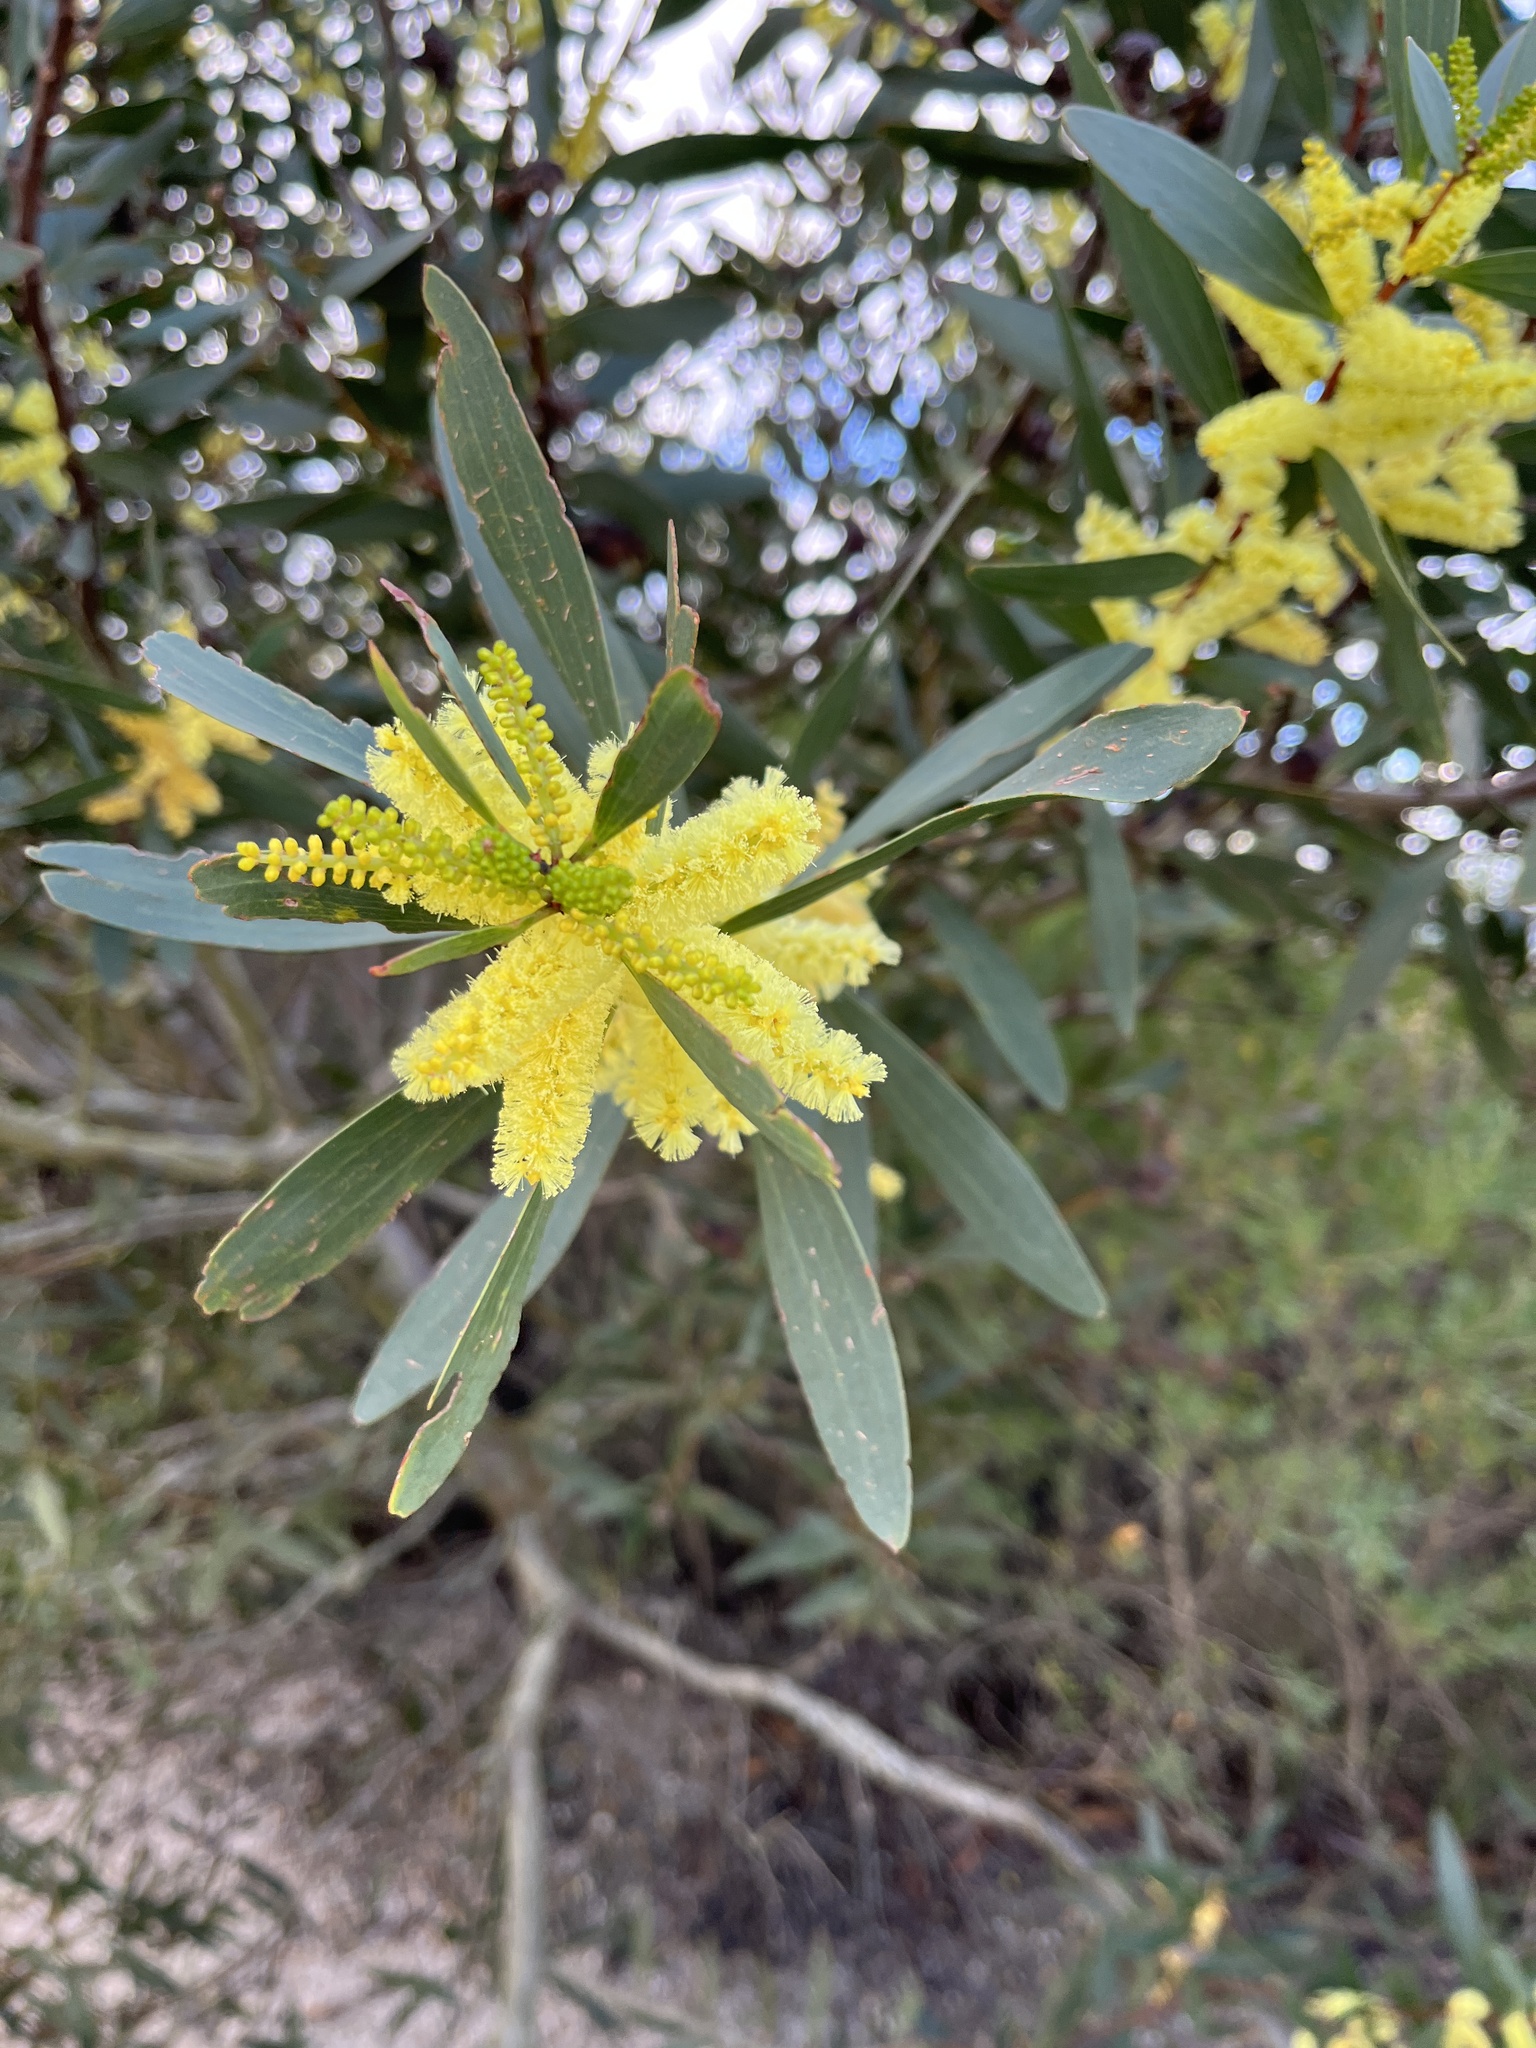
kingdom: Plantae
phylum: Tracheophyta
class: Magnoliopsida
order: Fabales
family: Fabaceae
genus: Acacia
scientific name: Acacia longifolia
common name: Sydney golden wattle
